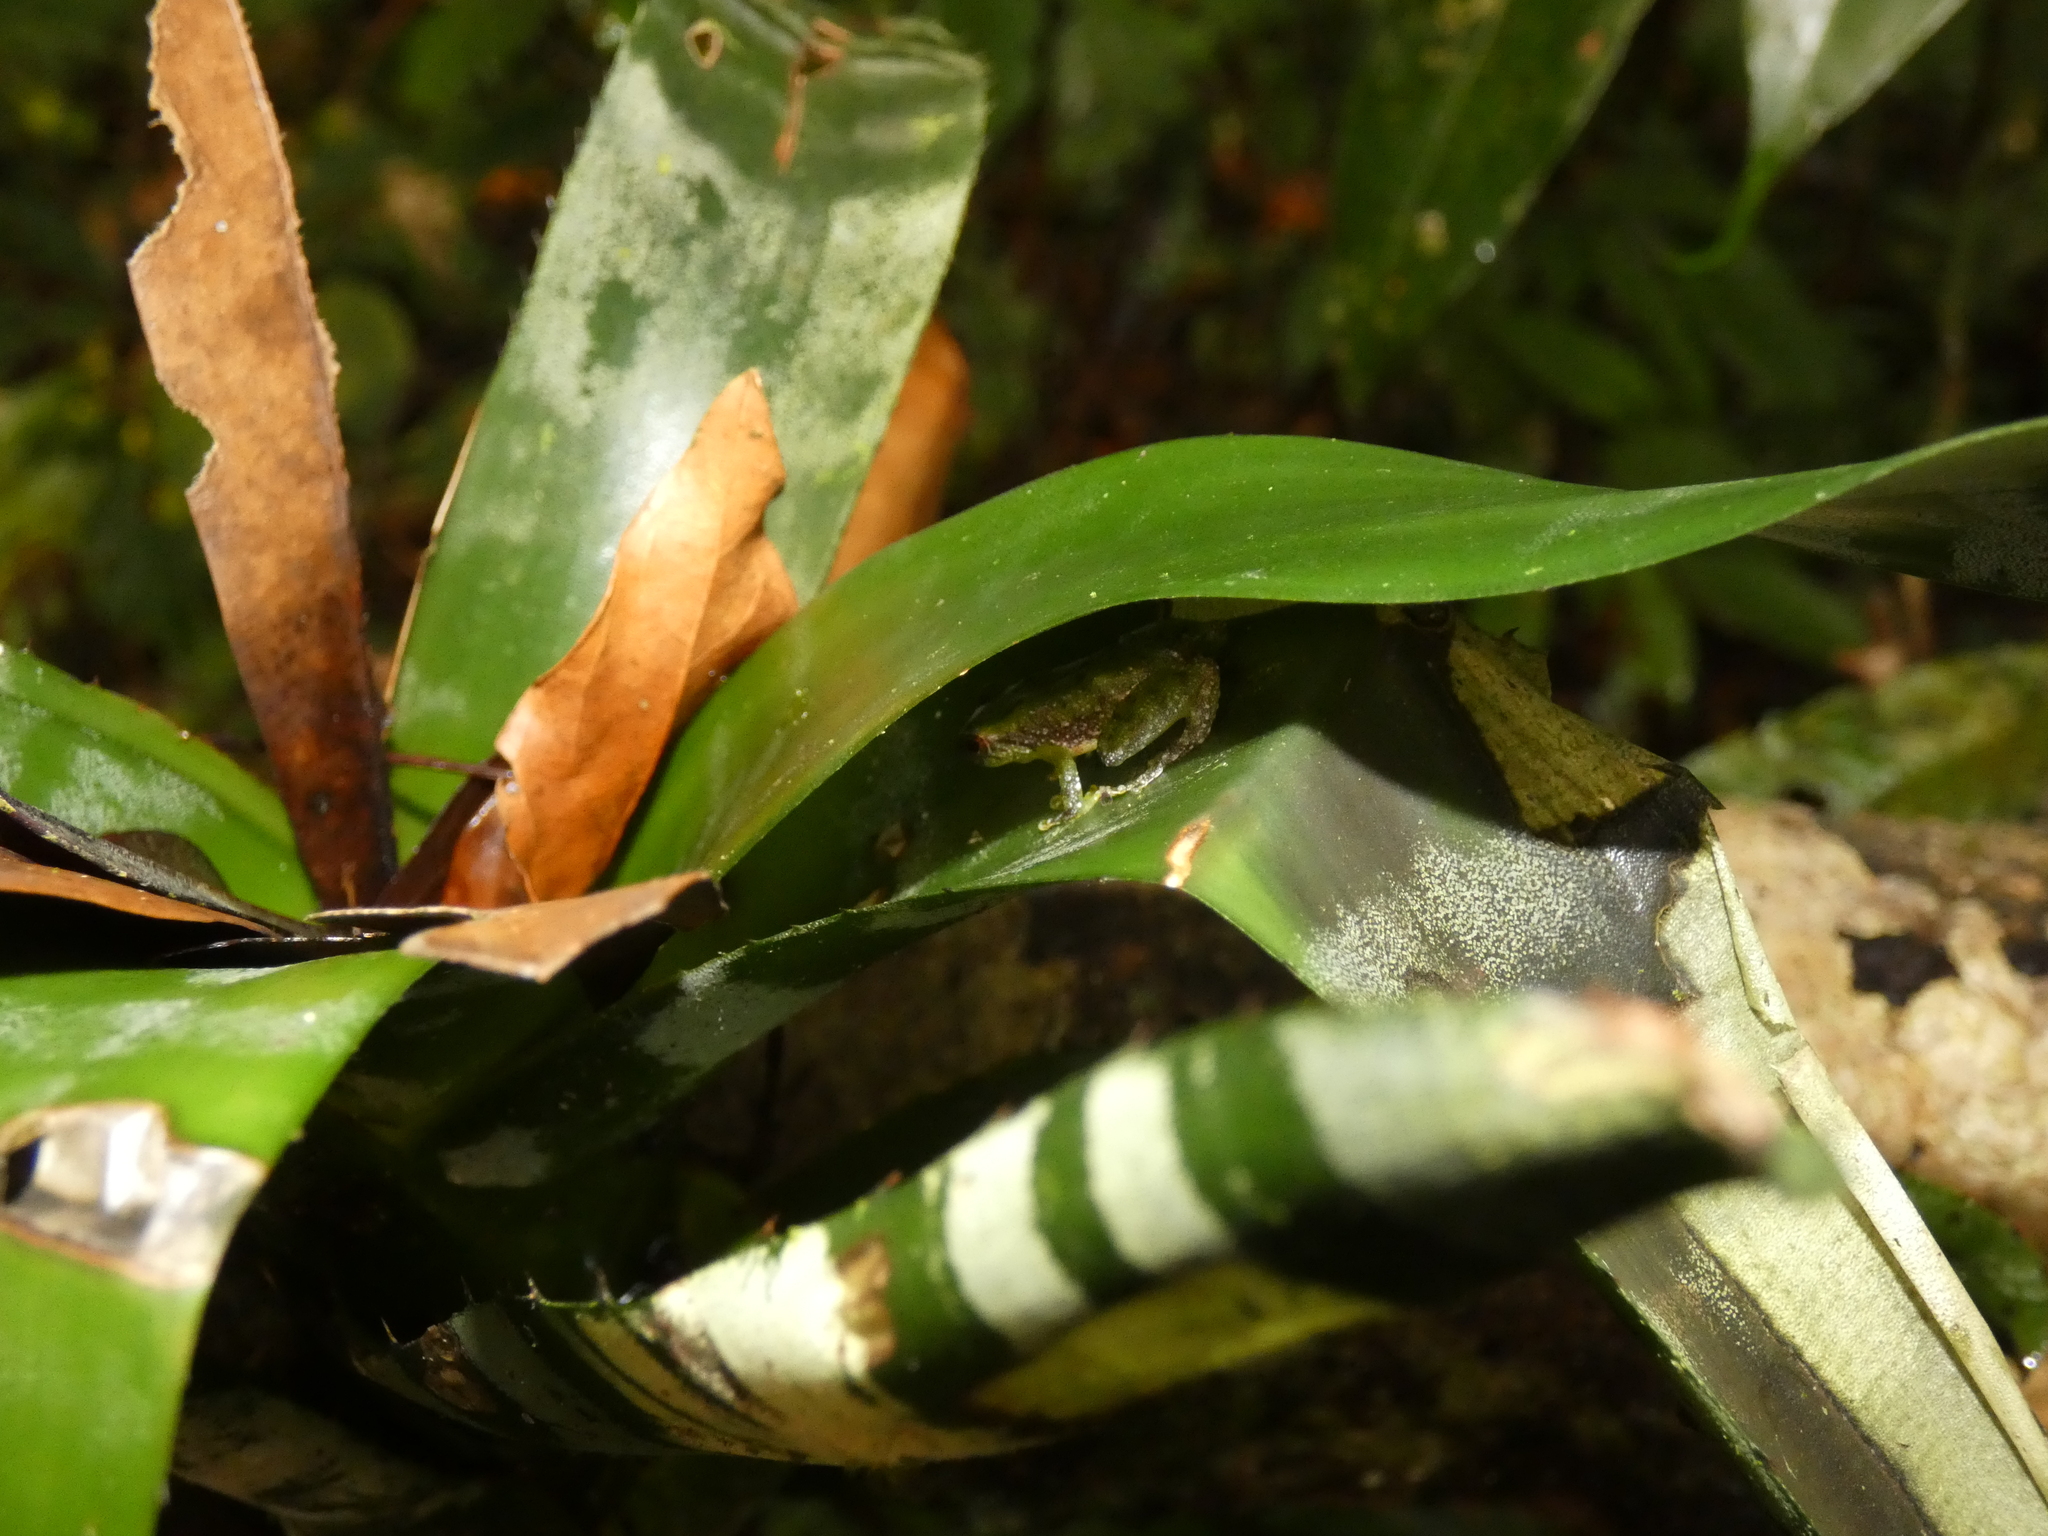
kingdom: Animalia
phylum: Chordata
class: Amphibia
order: Anura
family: Craugastoridae
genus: Pristimantis
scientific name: Pristimantis omeviridis
